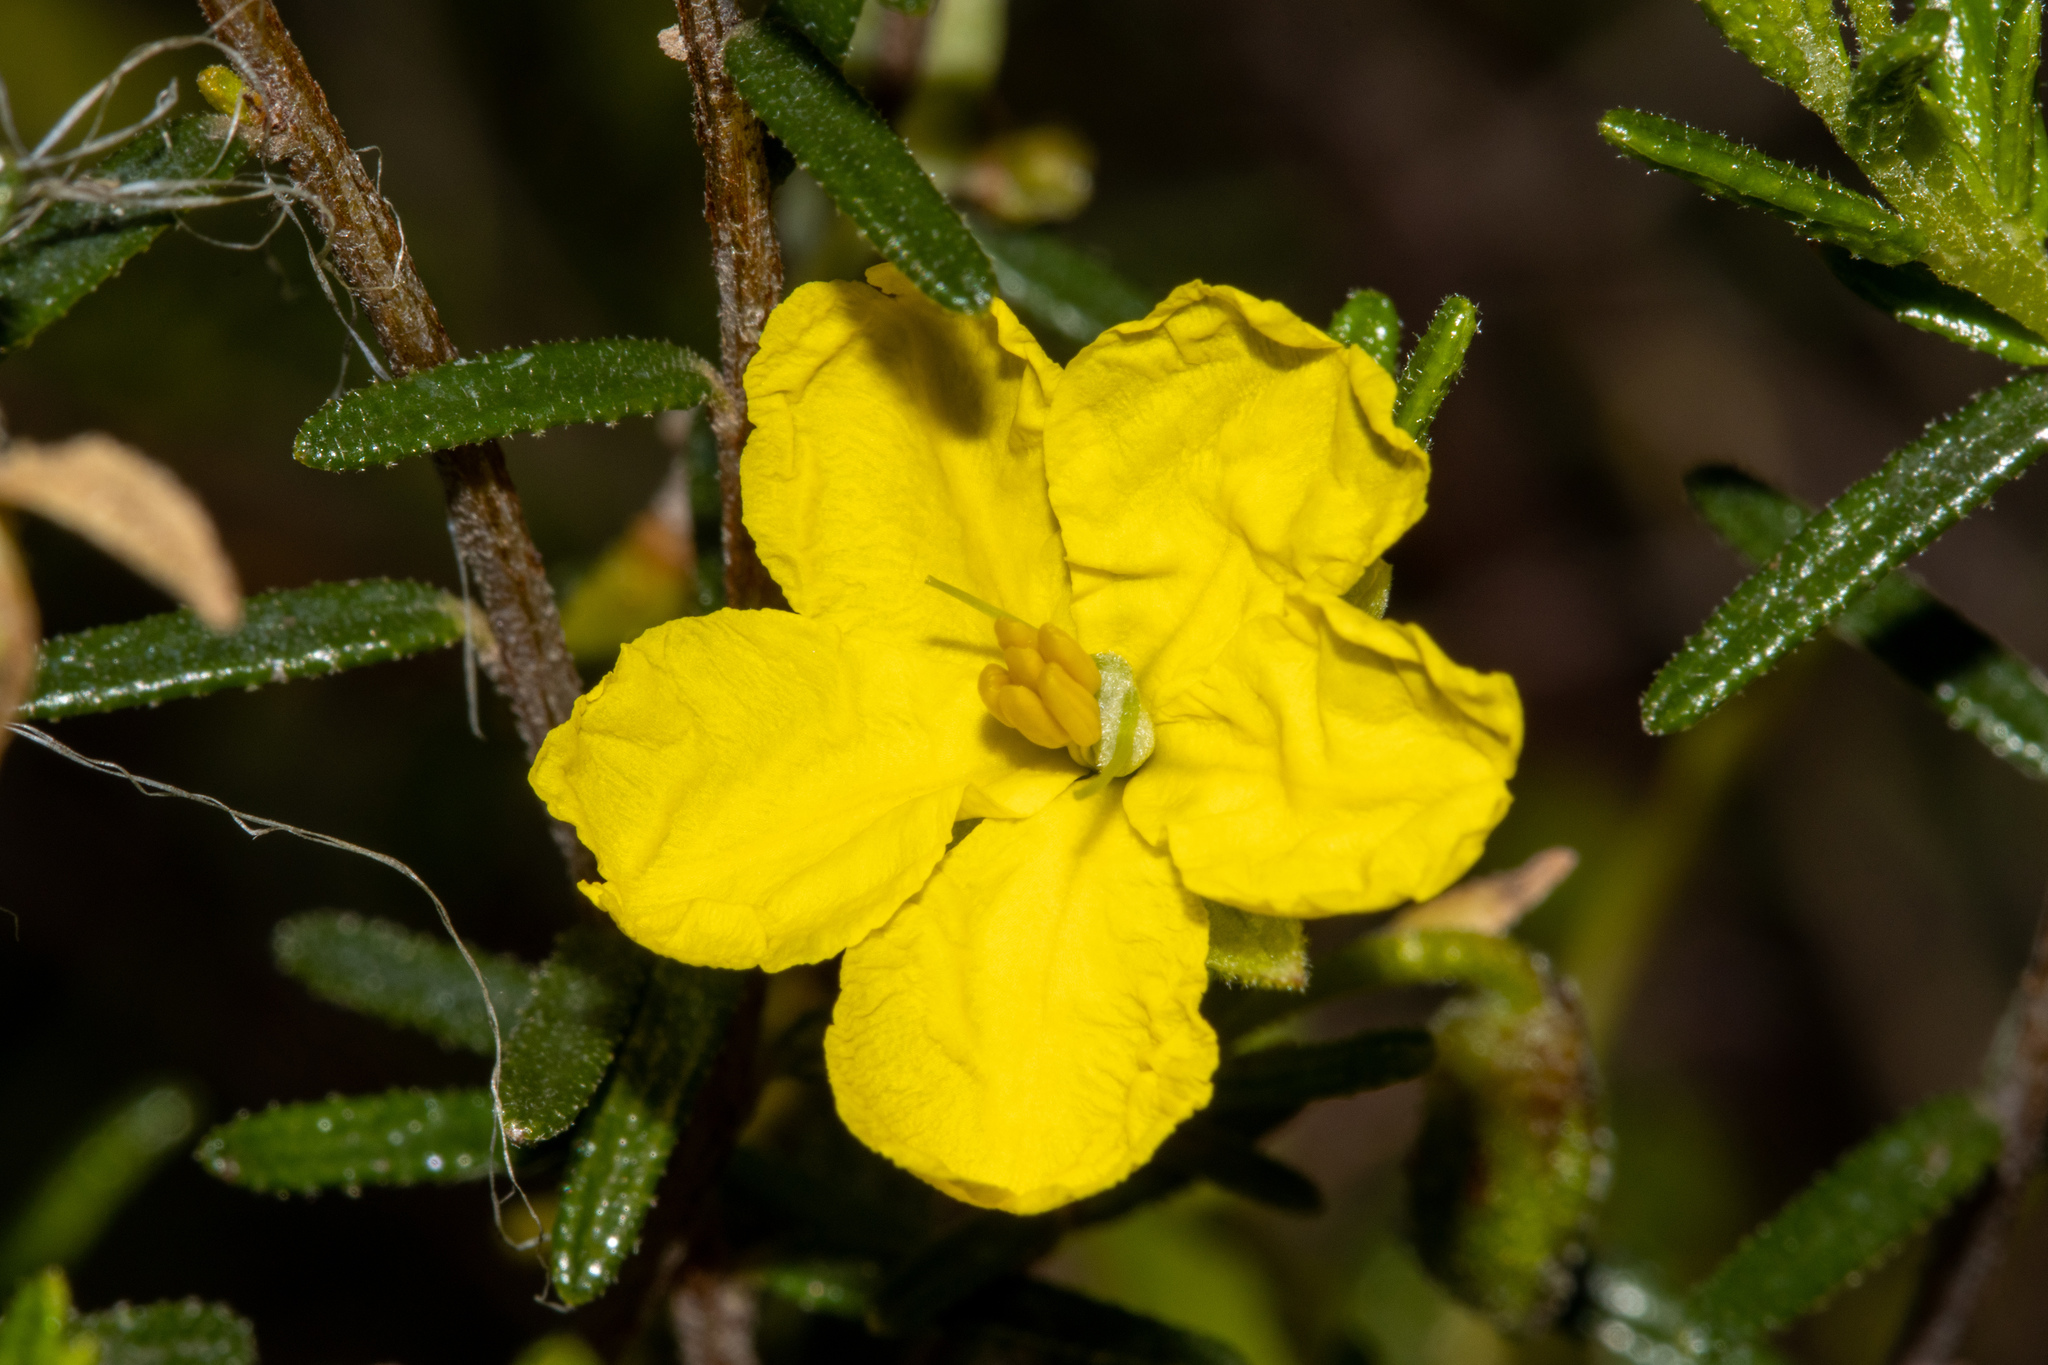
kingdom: Plantae
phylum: Tracheophyta
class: Magnoliopsida
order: Dilleniales
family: Dilleniaceae
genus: Hibbertia
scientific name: Hibbertia glebosa
